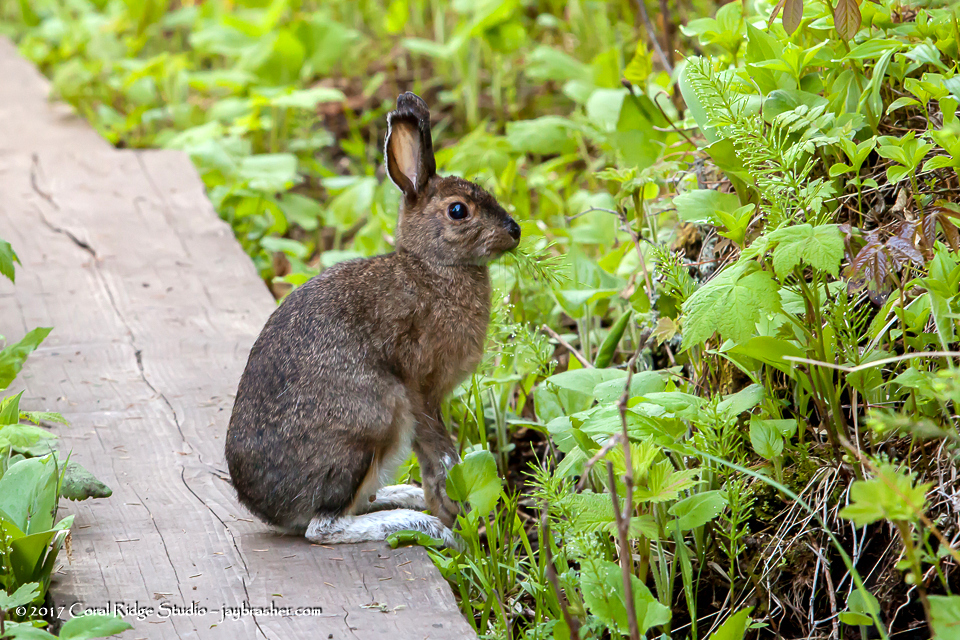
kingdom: Animalia
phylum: Chordata
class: Mammalia
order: Lagomorpha
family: Leporidae
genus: Lepus
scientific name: Lepus americanus
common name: Snowshoe hare
